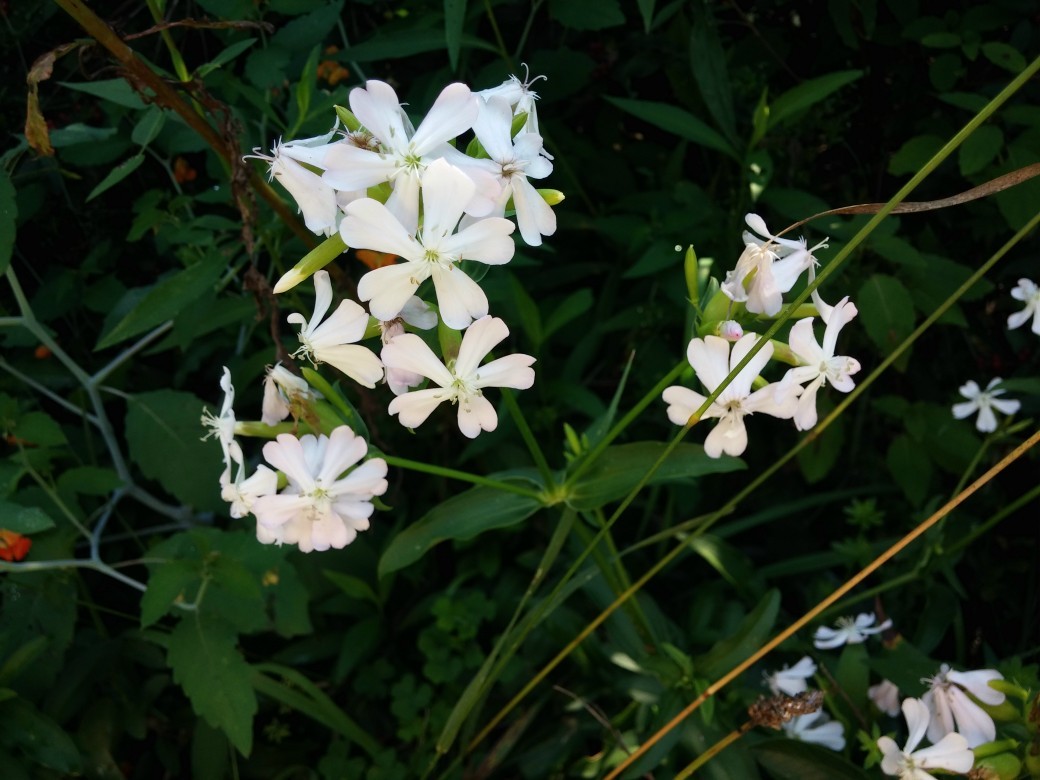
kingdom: Plantae
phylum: Tracheophyta
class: Magnoliopsida
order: Caryophyllales
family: Caryophyllaceae
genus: Saponaria
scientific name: Saponaria officinalis
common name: Soapwort
